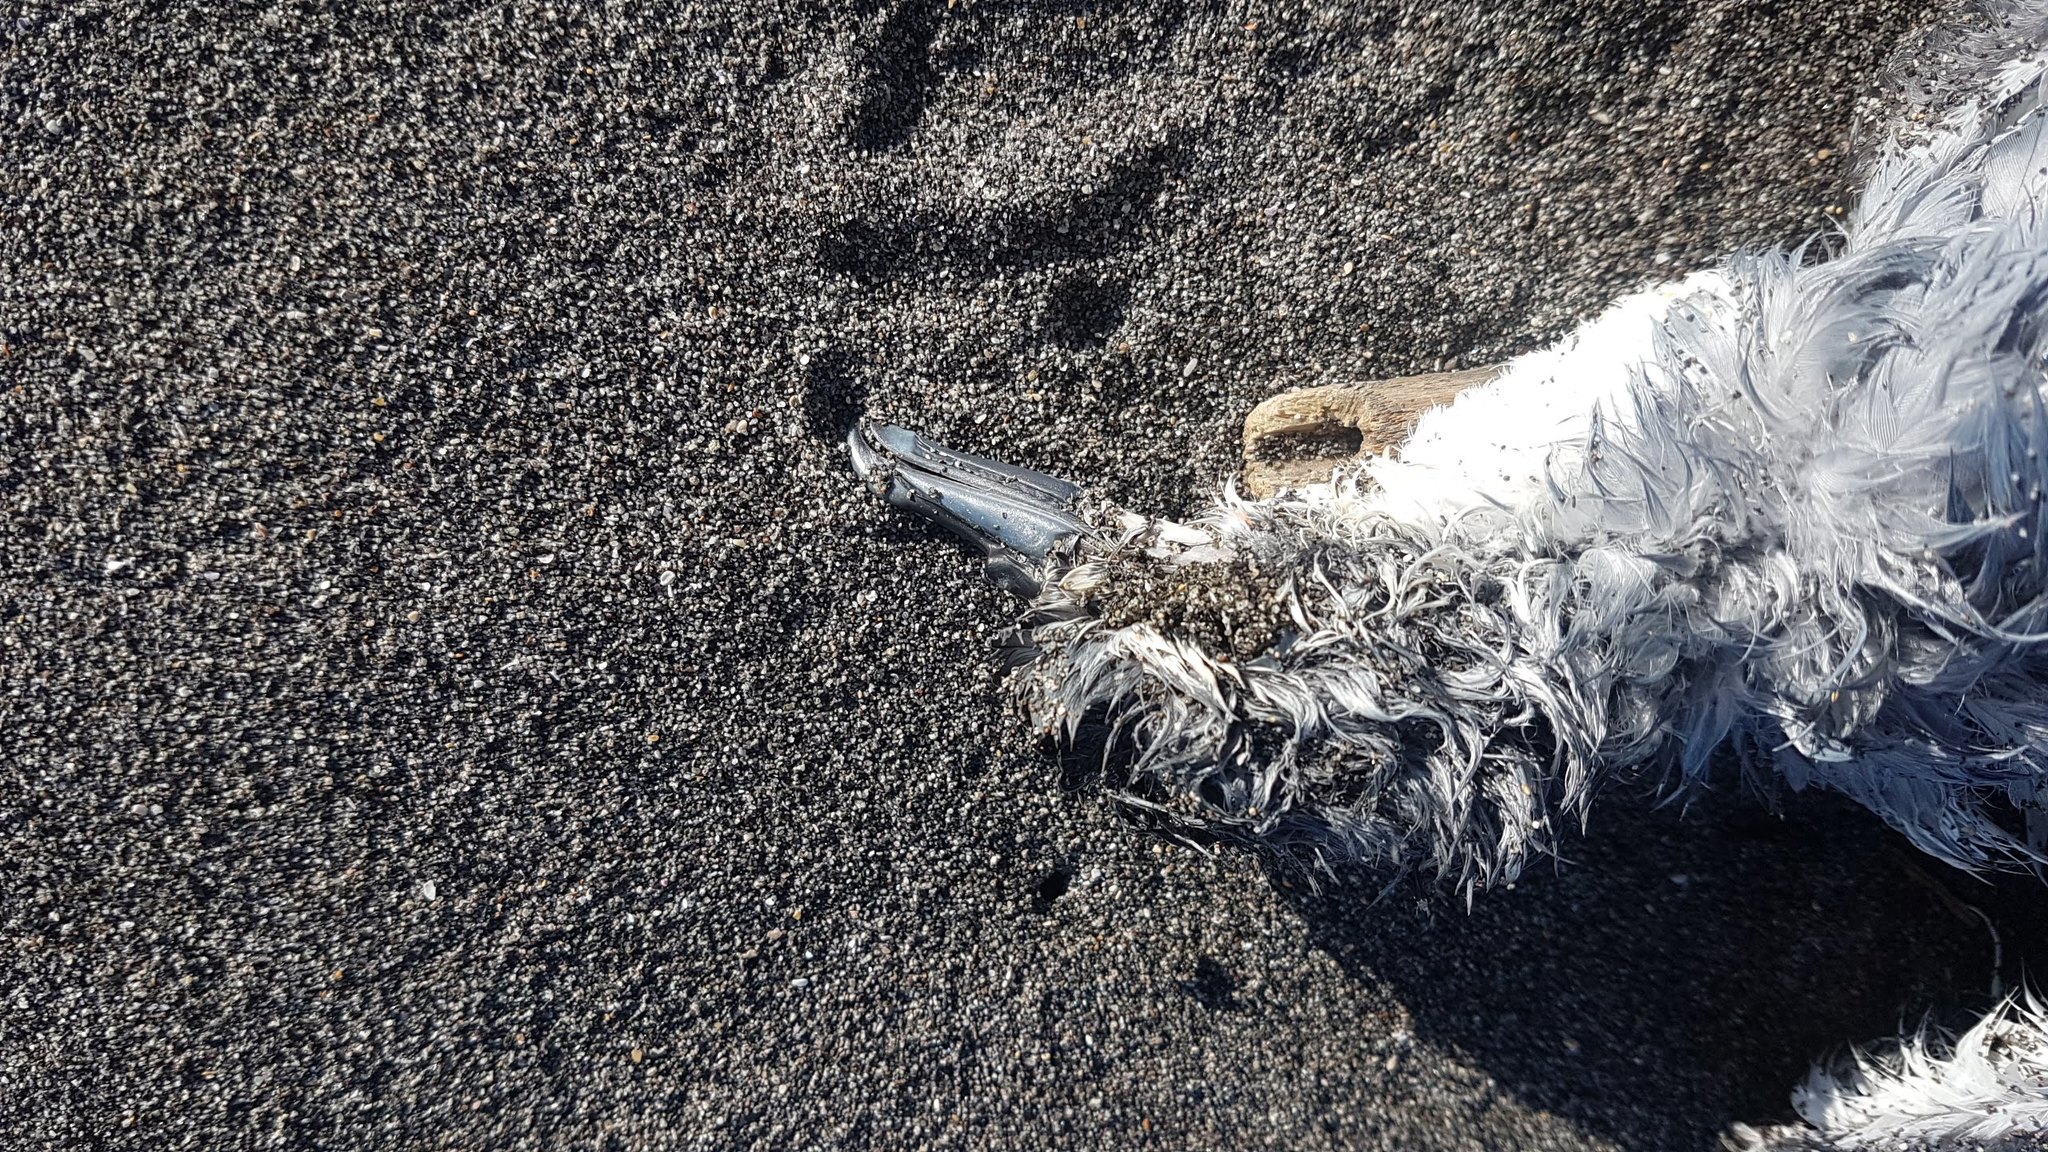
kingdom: Animalia
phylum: Chordata
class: Aves
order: Procellariiformes
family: Procellariidae
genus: Pachyptila
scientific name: Pachyptila turtur
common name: Fairy prion
